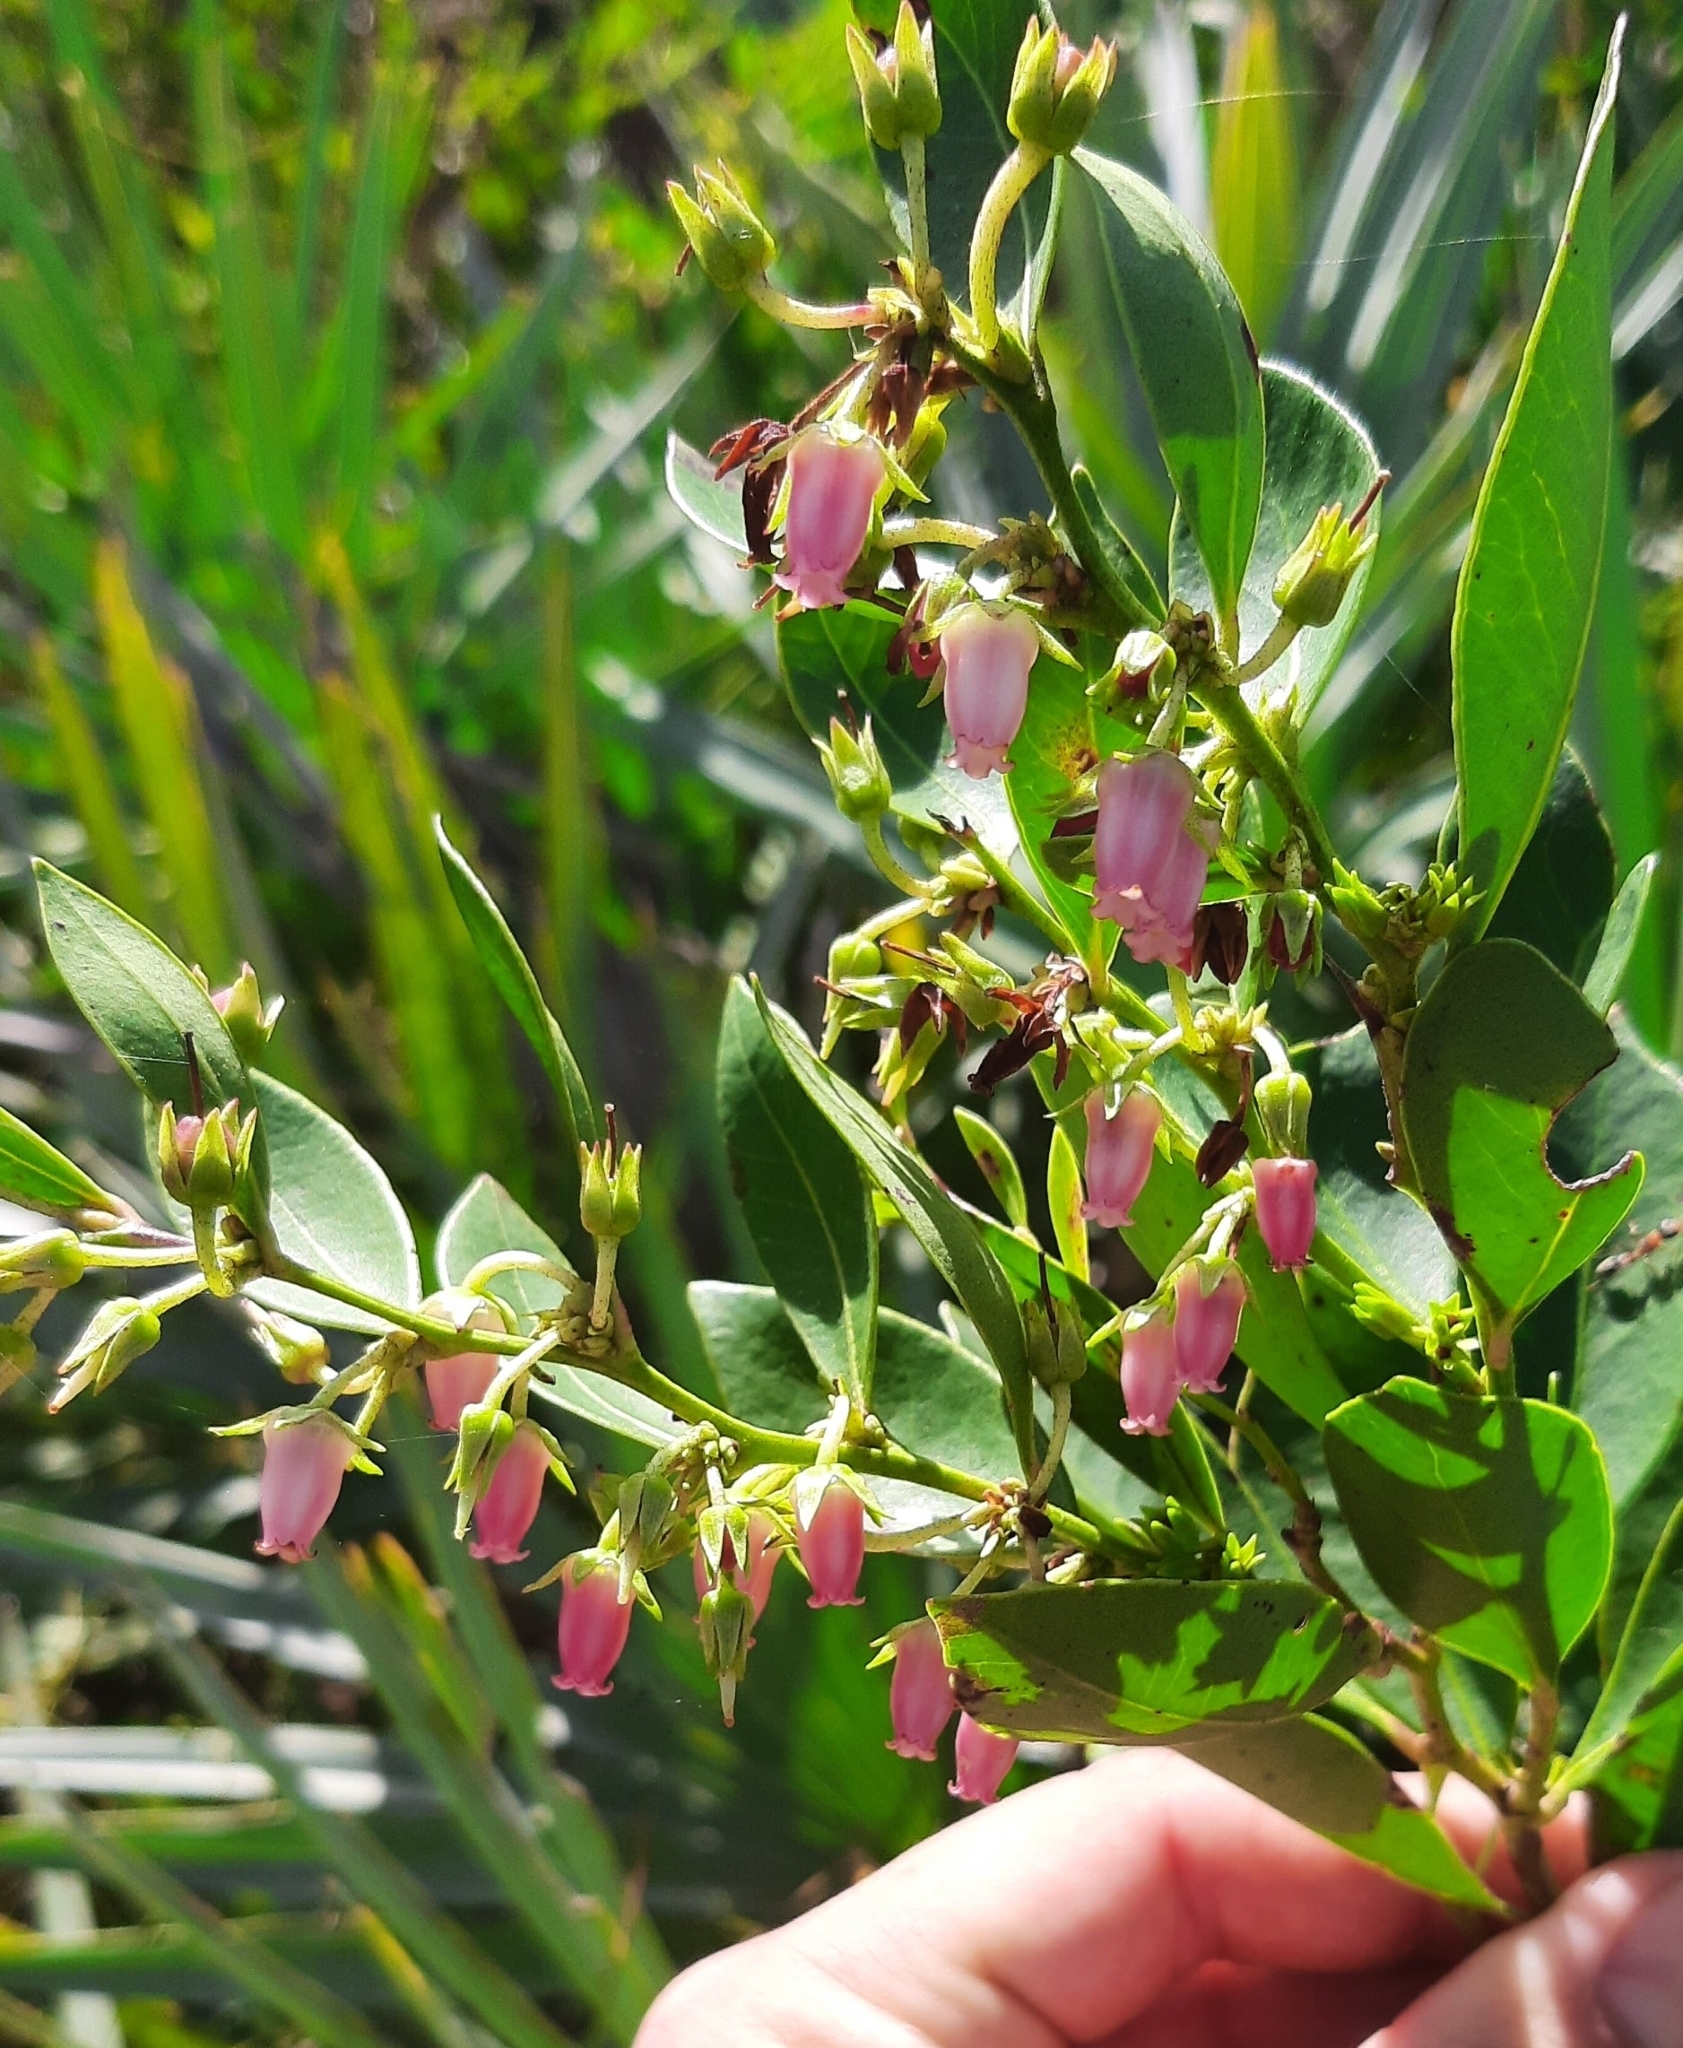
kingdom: Plantae
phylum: Tracheophyta
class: Magnoliopsida
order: Ericales
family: Ericaceae
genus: Lyonia
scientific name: Lyonia lucida
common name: Fetterbush
